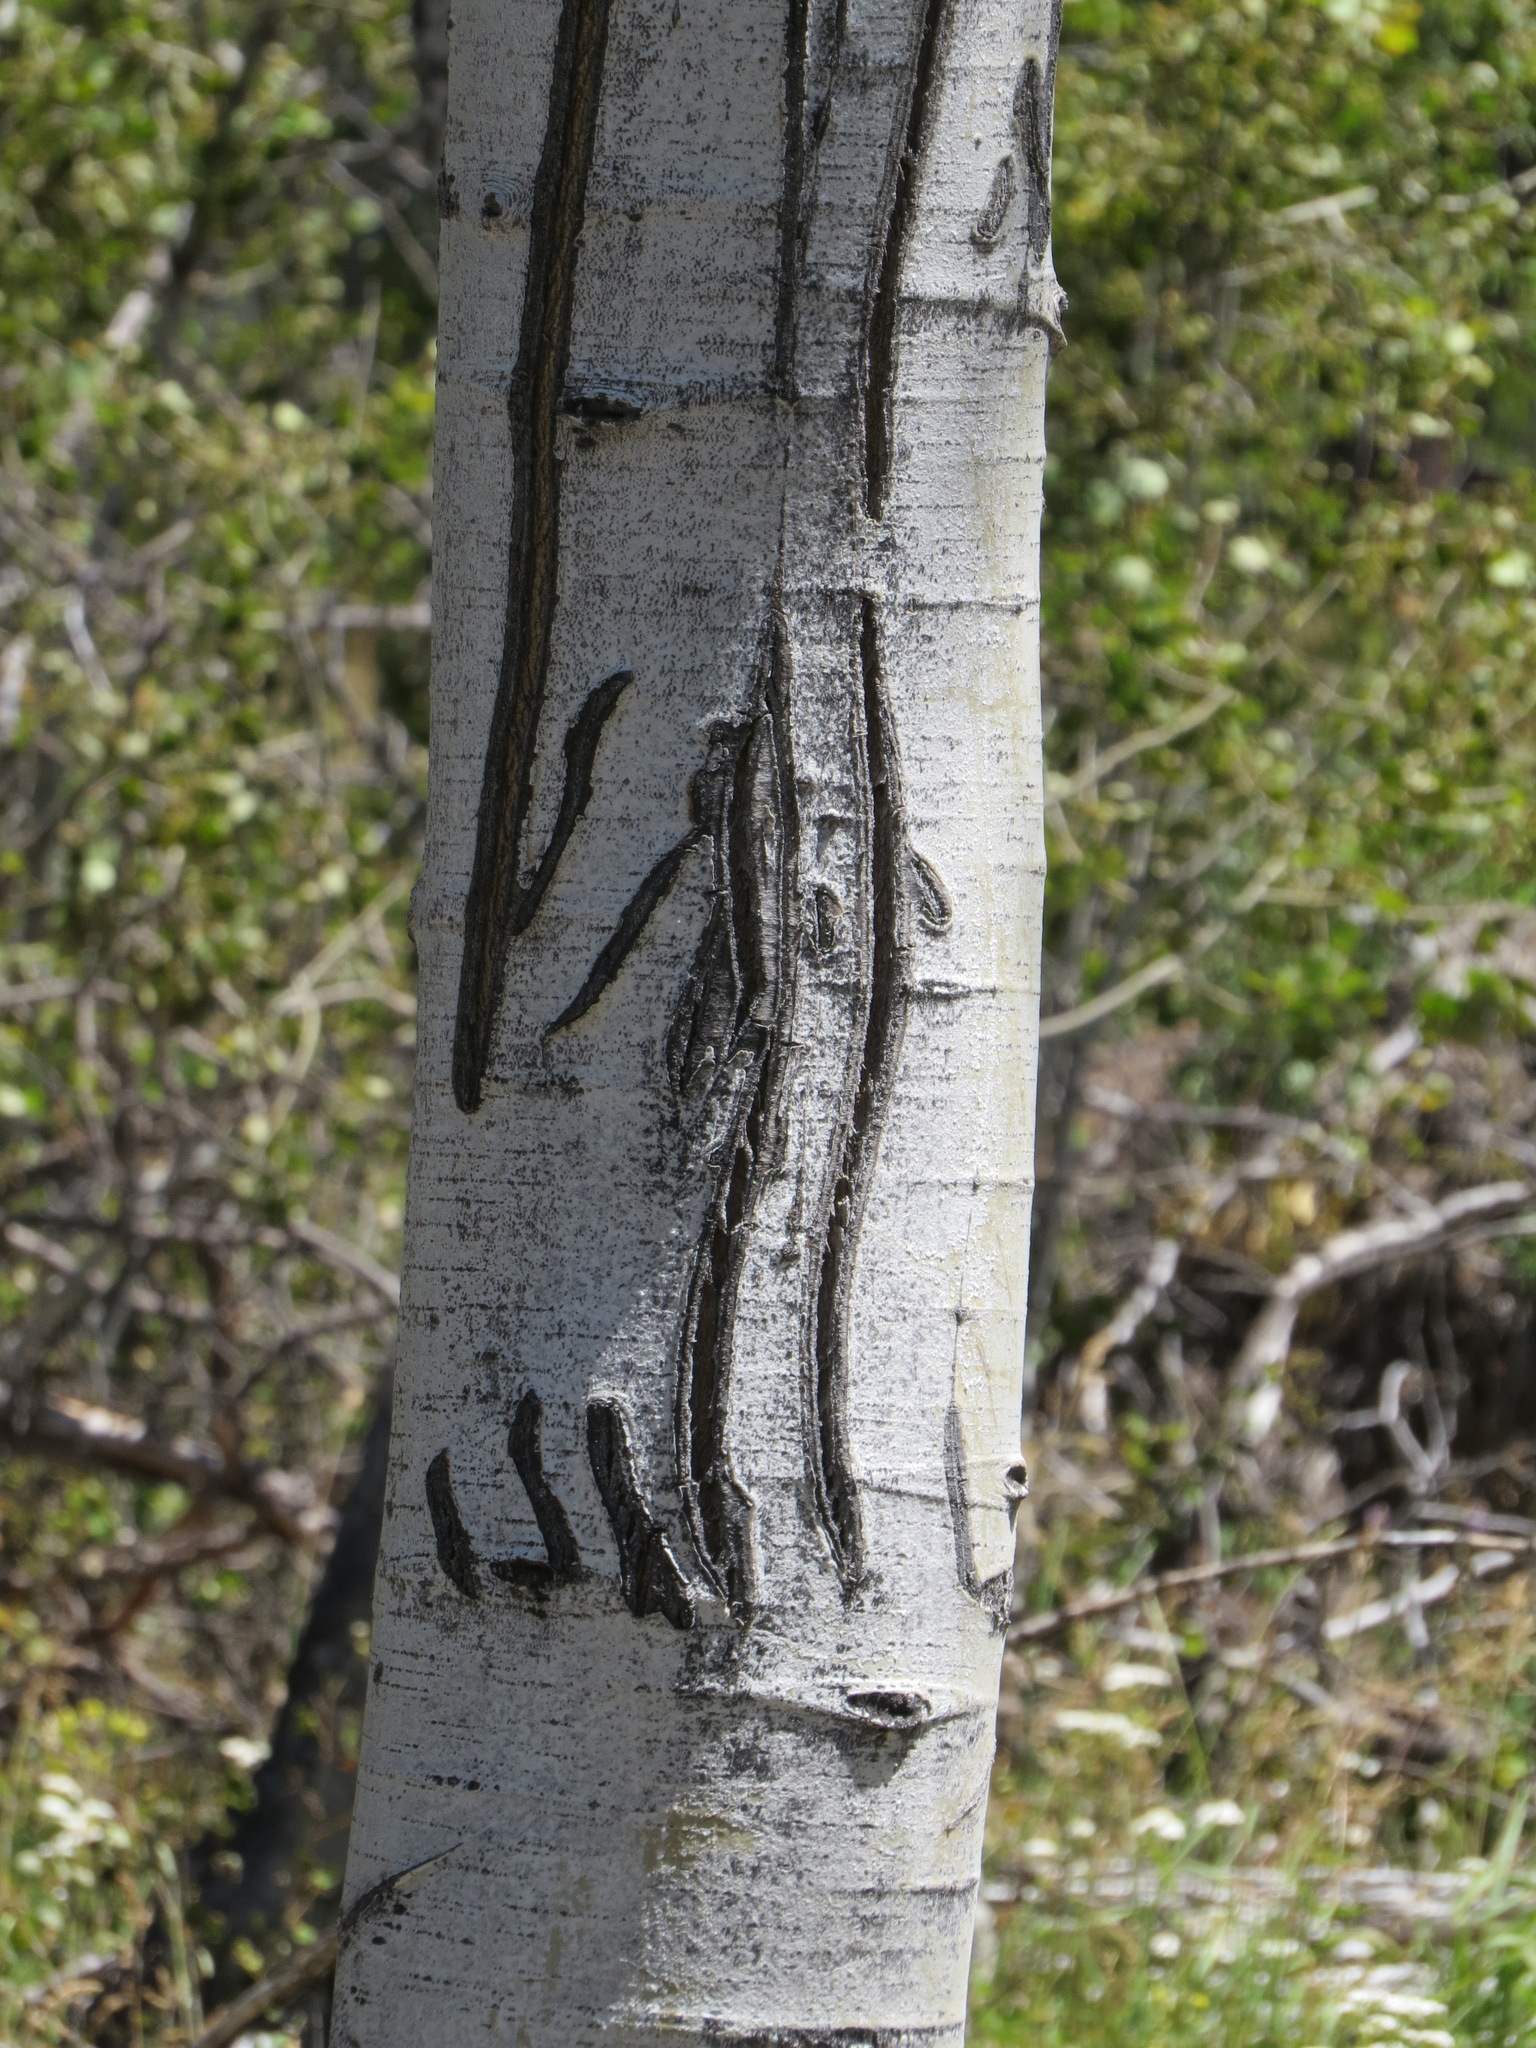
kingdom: Animalia
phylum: Chordata
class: Mammalia
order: Carnivora
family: Ursidae
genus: Ursus
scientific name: Ursus americanus
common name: American black bear
